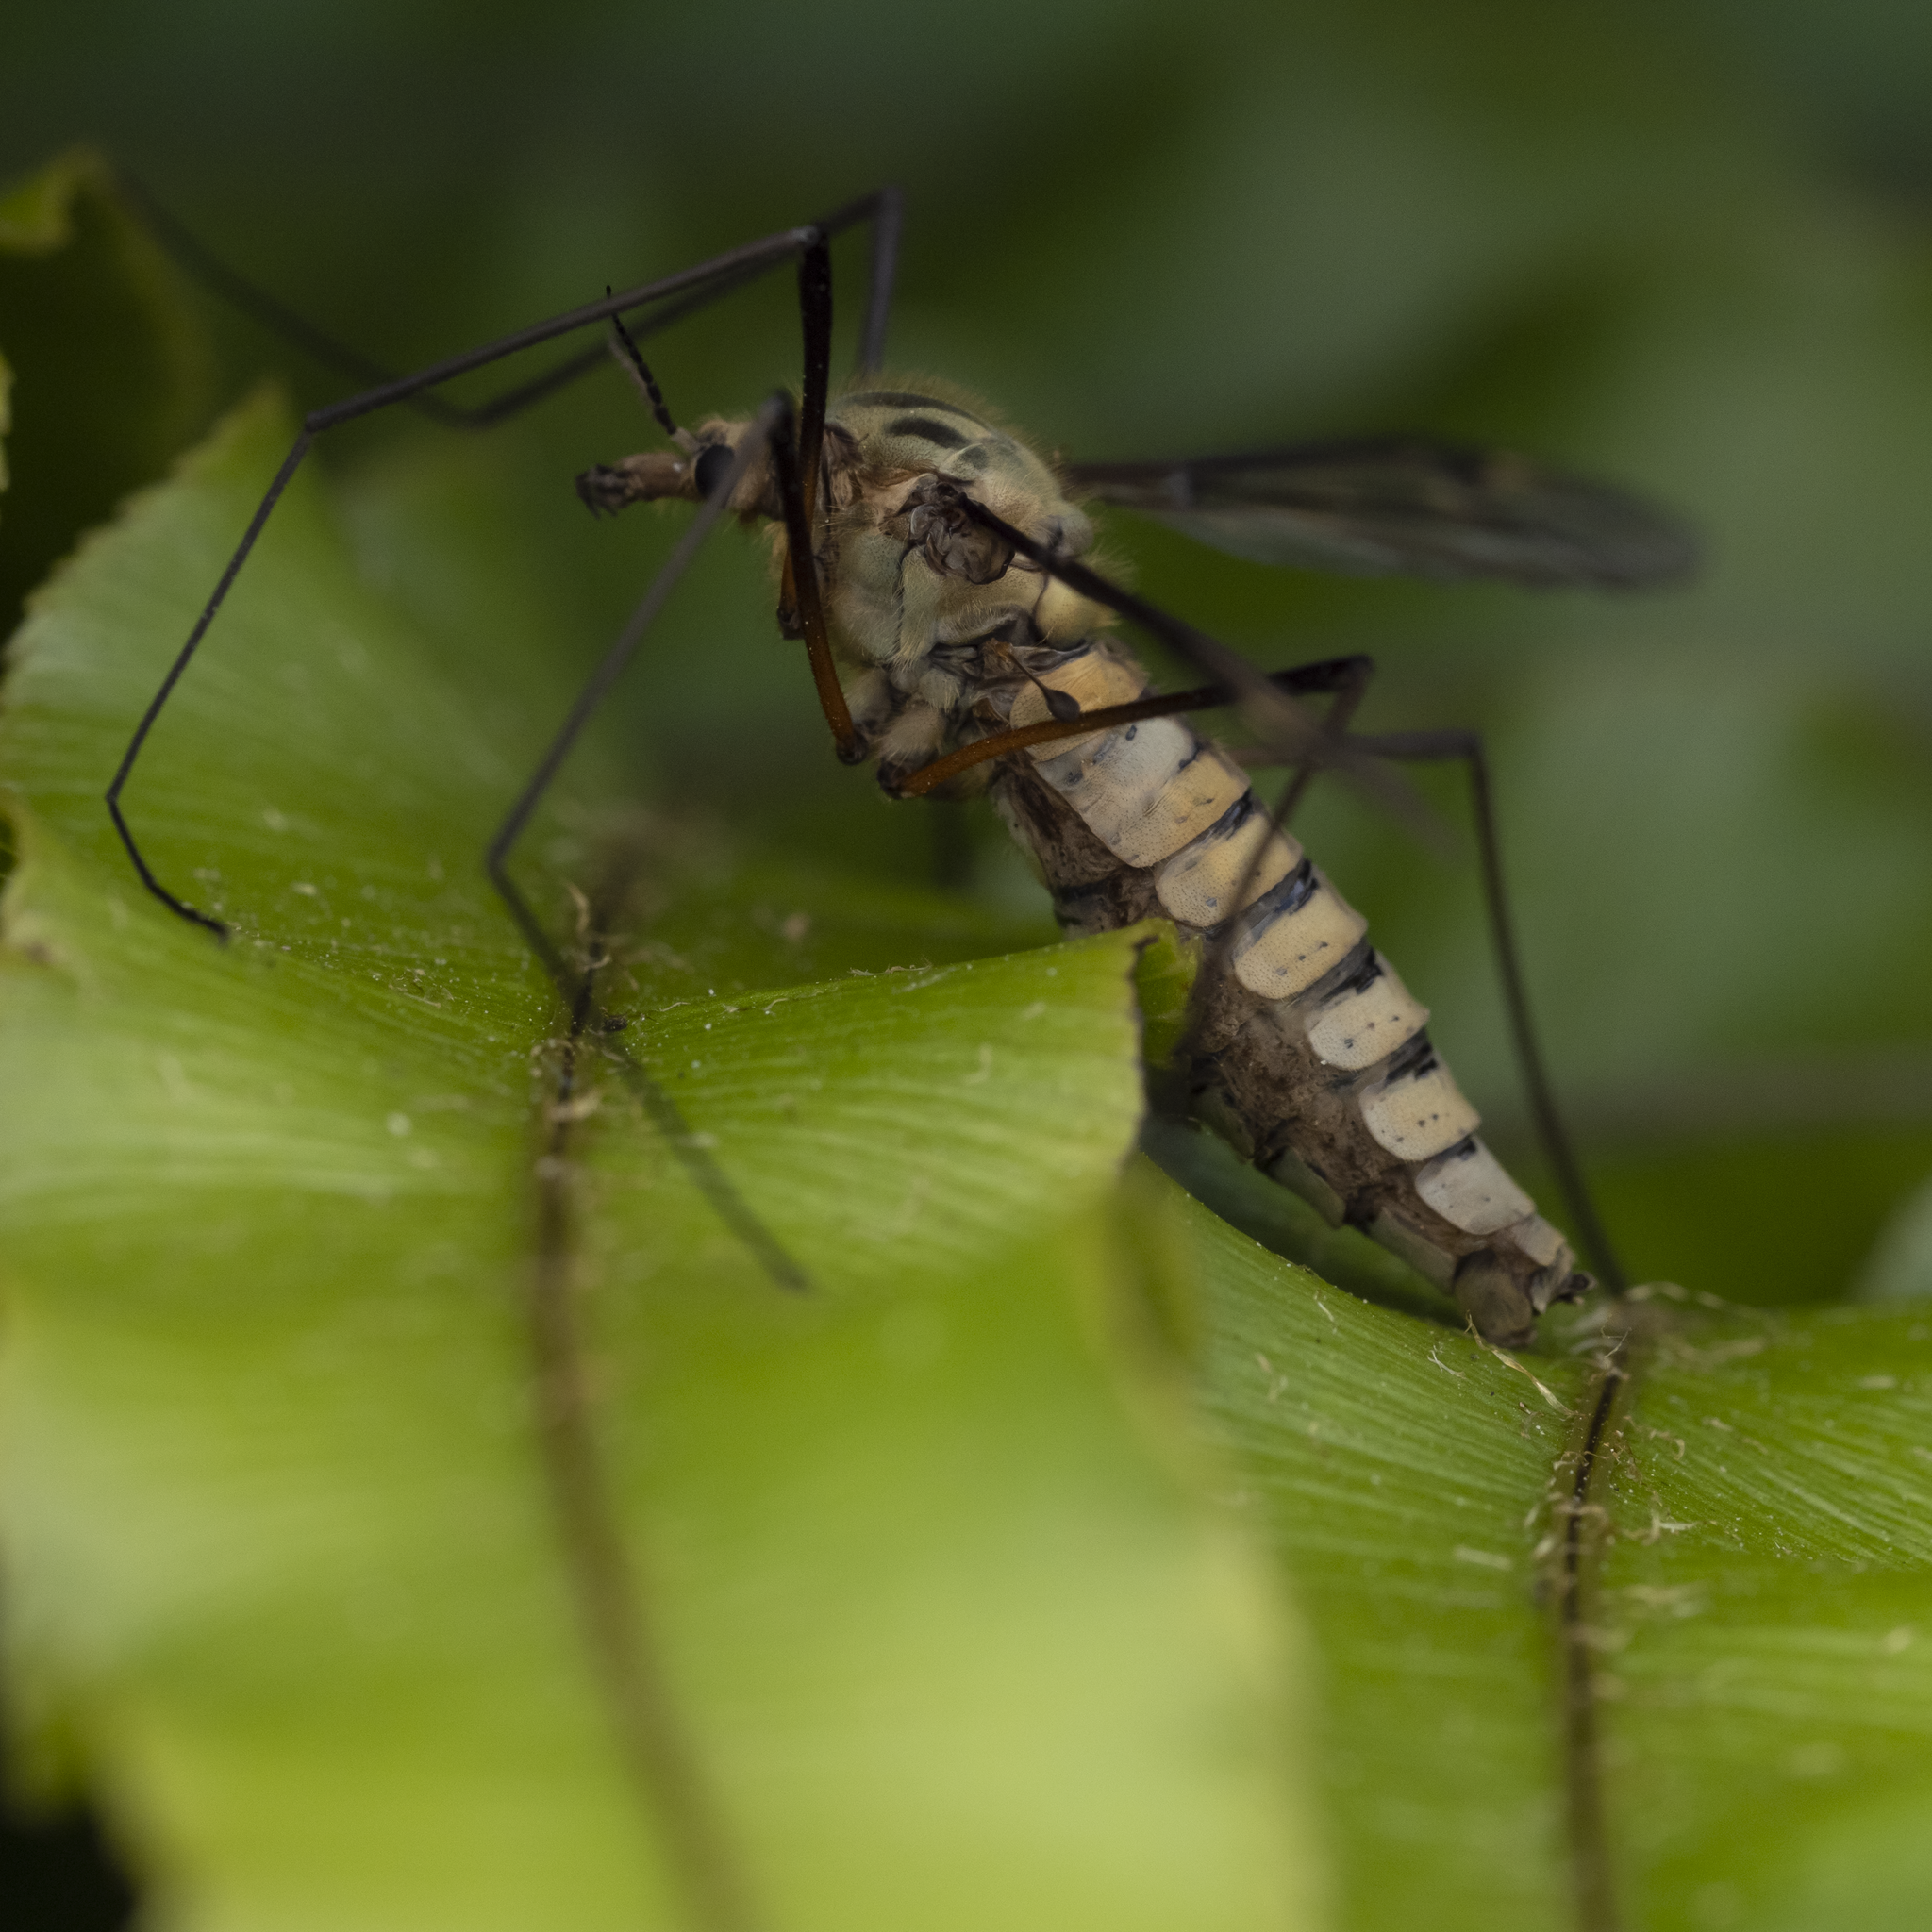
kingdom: Animalia
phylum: Arthropoda
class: Insecta
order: Diptera
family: Tipulidae
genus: Leptotarsus
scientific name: Leptotarsus vulpinus
